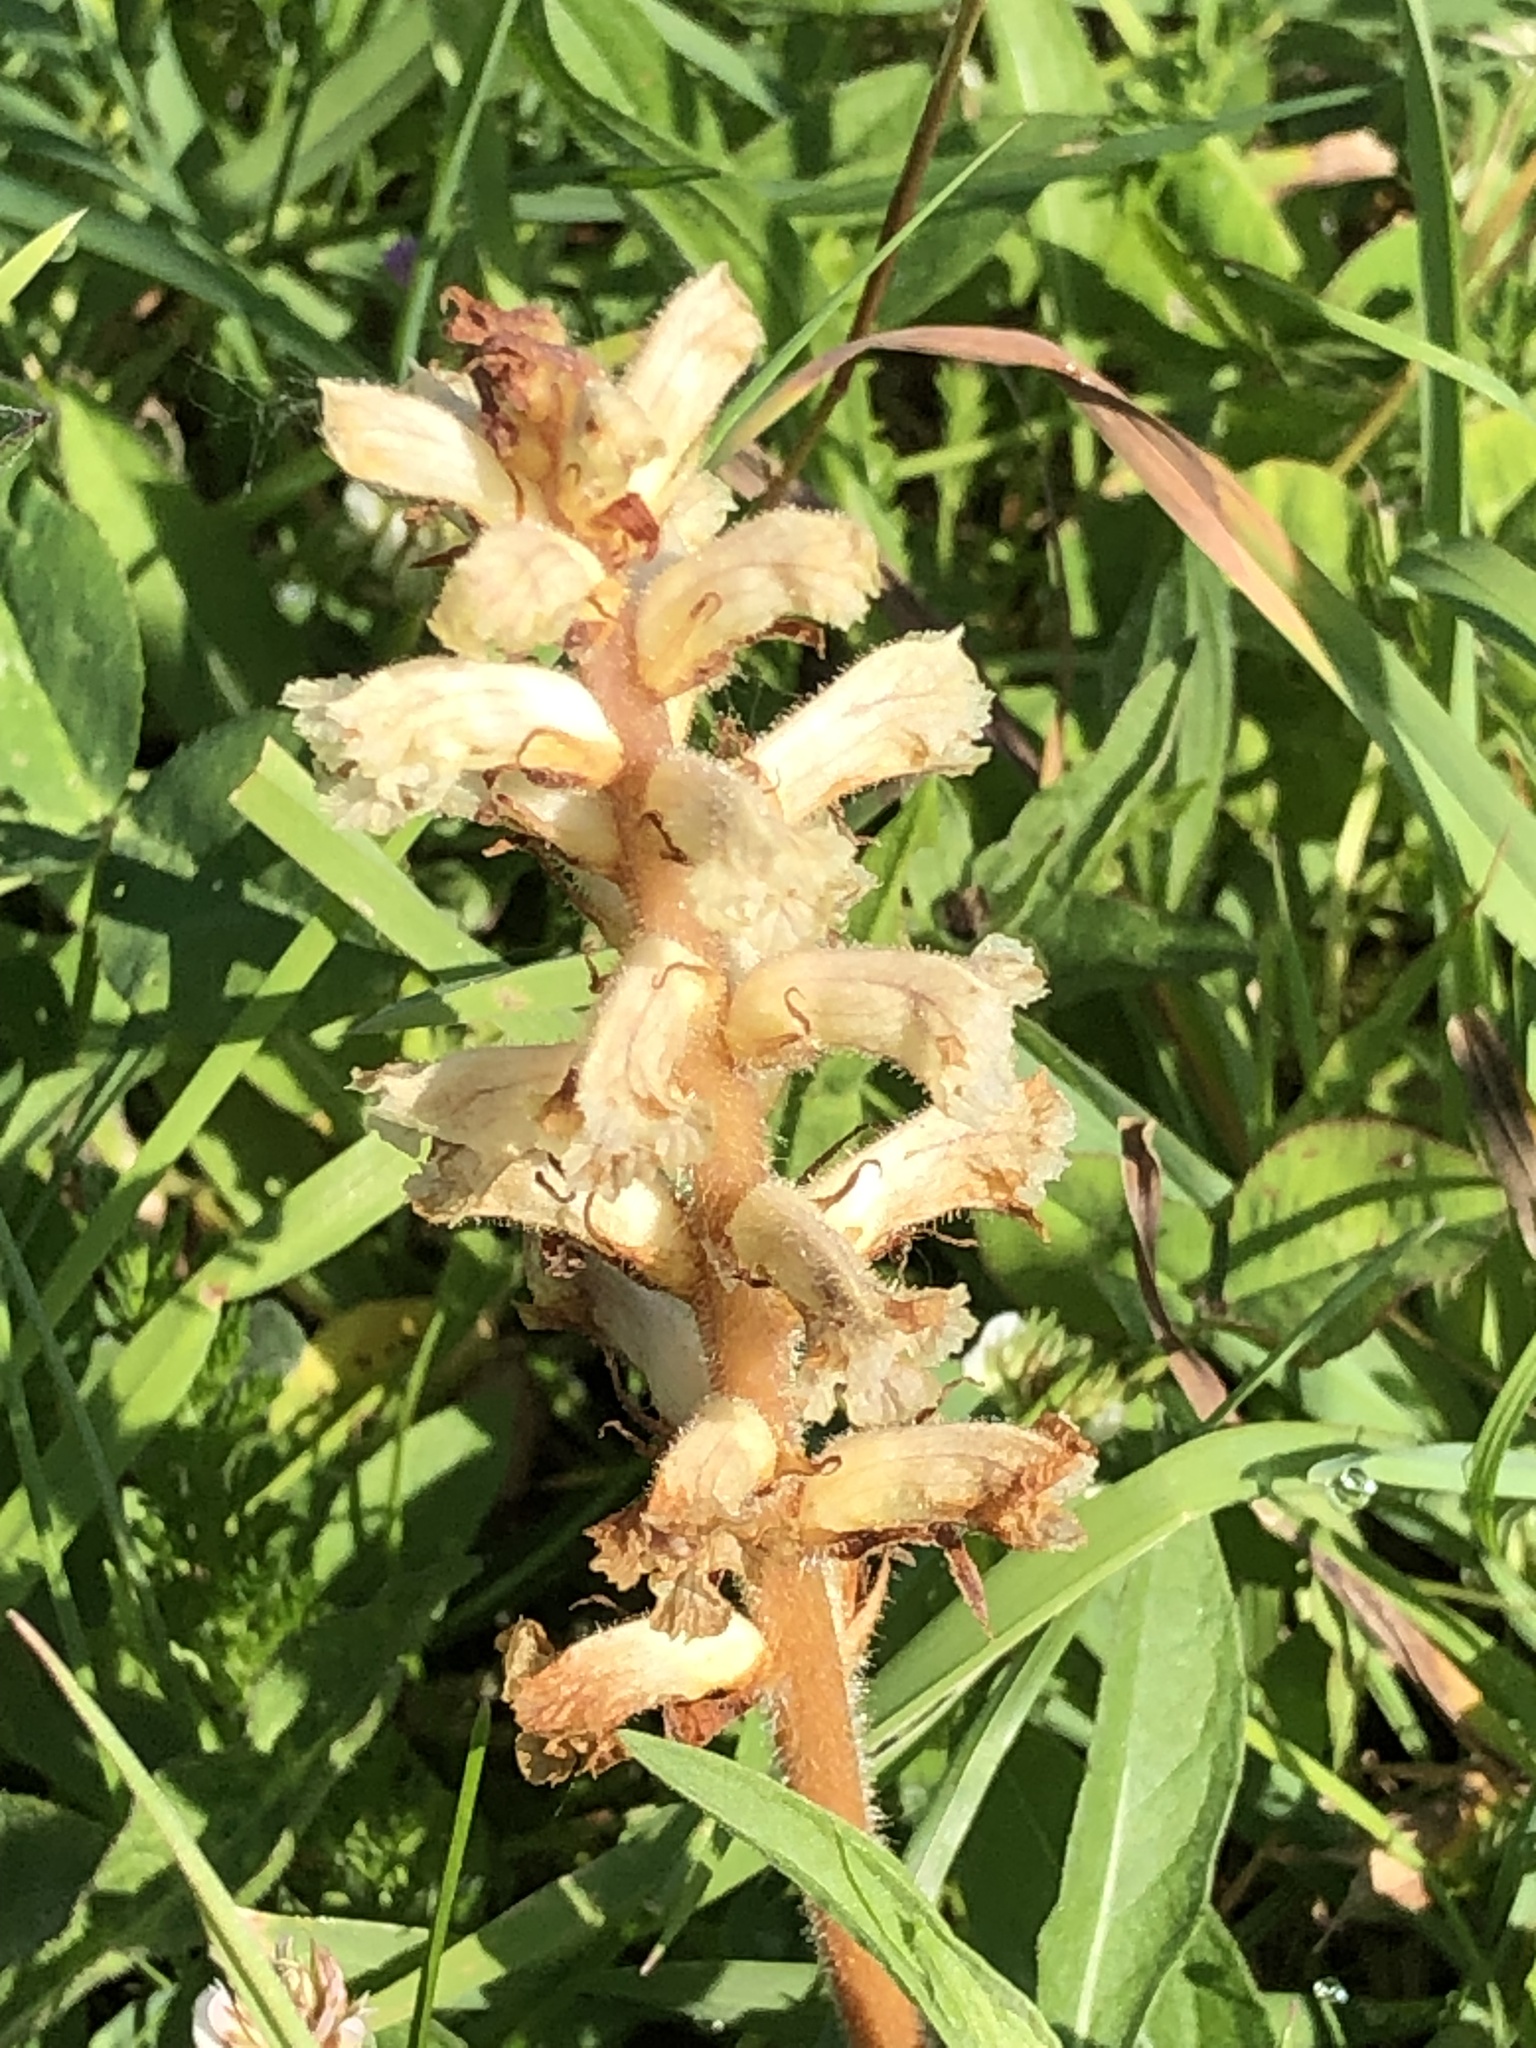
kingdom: Plantae
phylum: Tracheophyta
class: Magnoliopsida
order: Lamiales
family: Orobanchaceae
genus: Orobanche
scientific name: Orobanche minor
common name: Common broomrape
